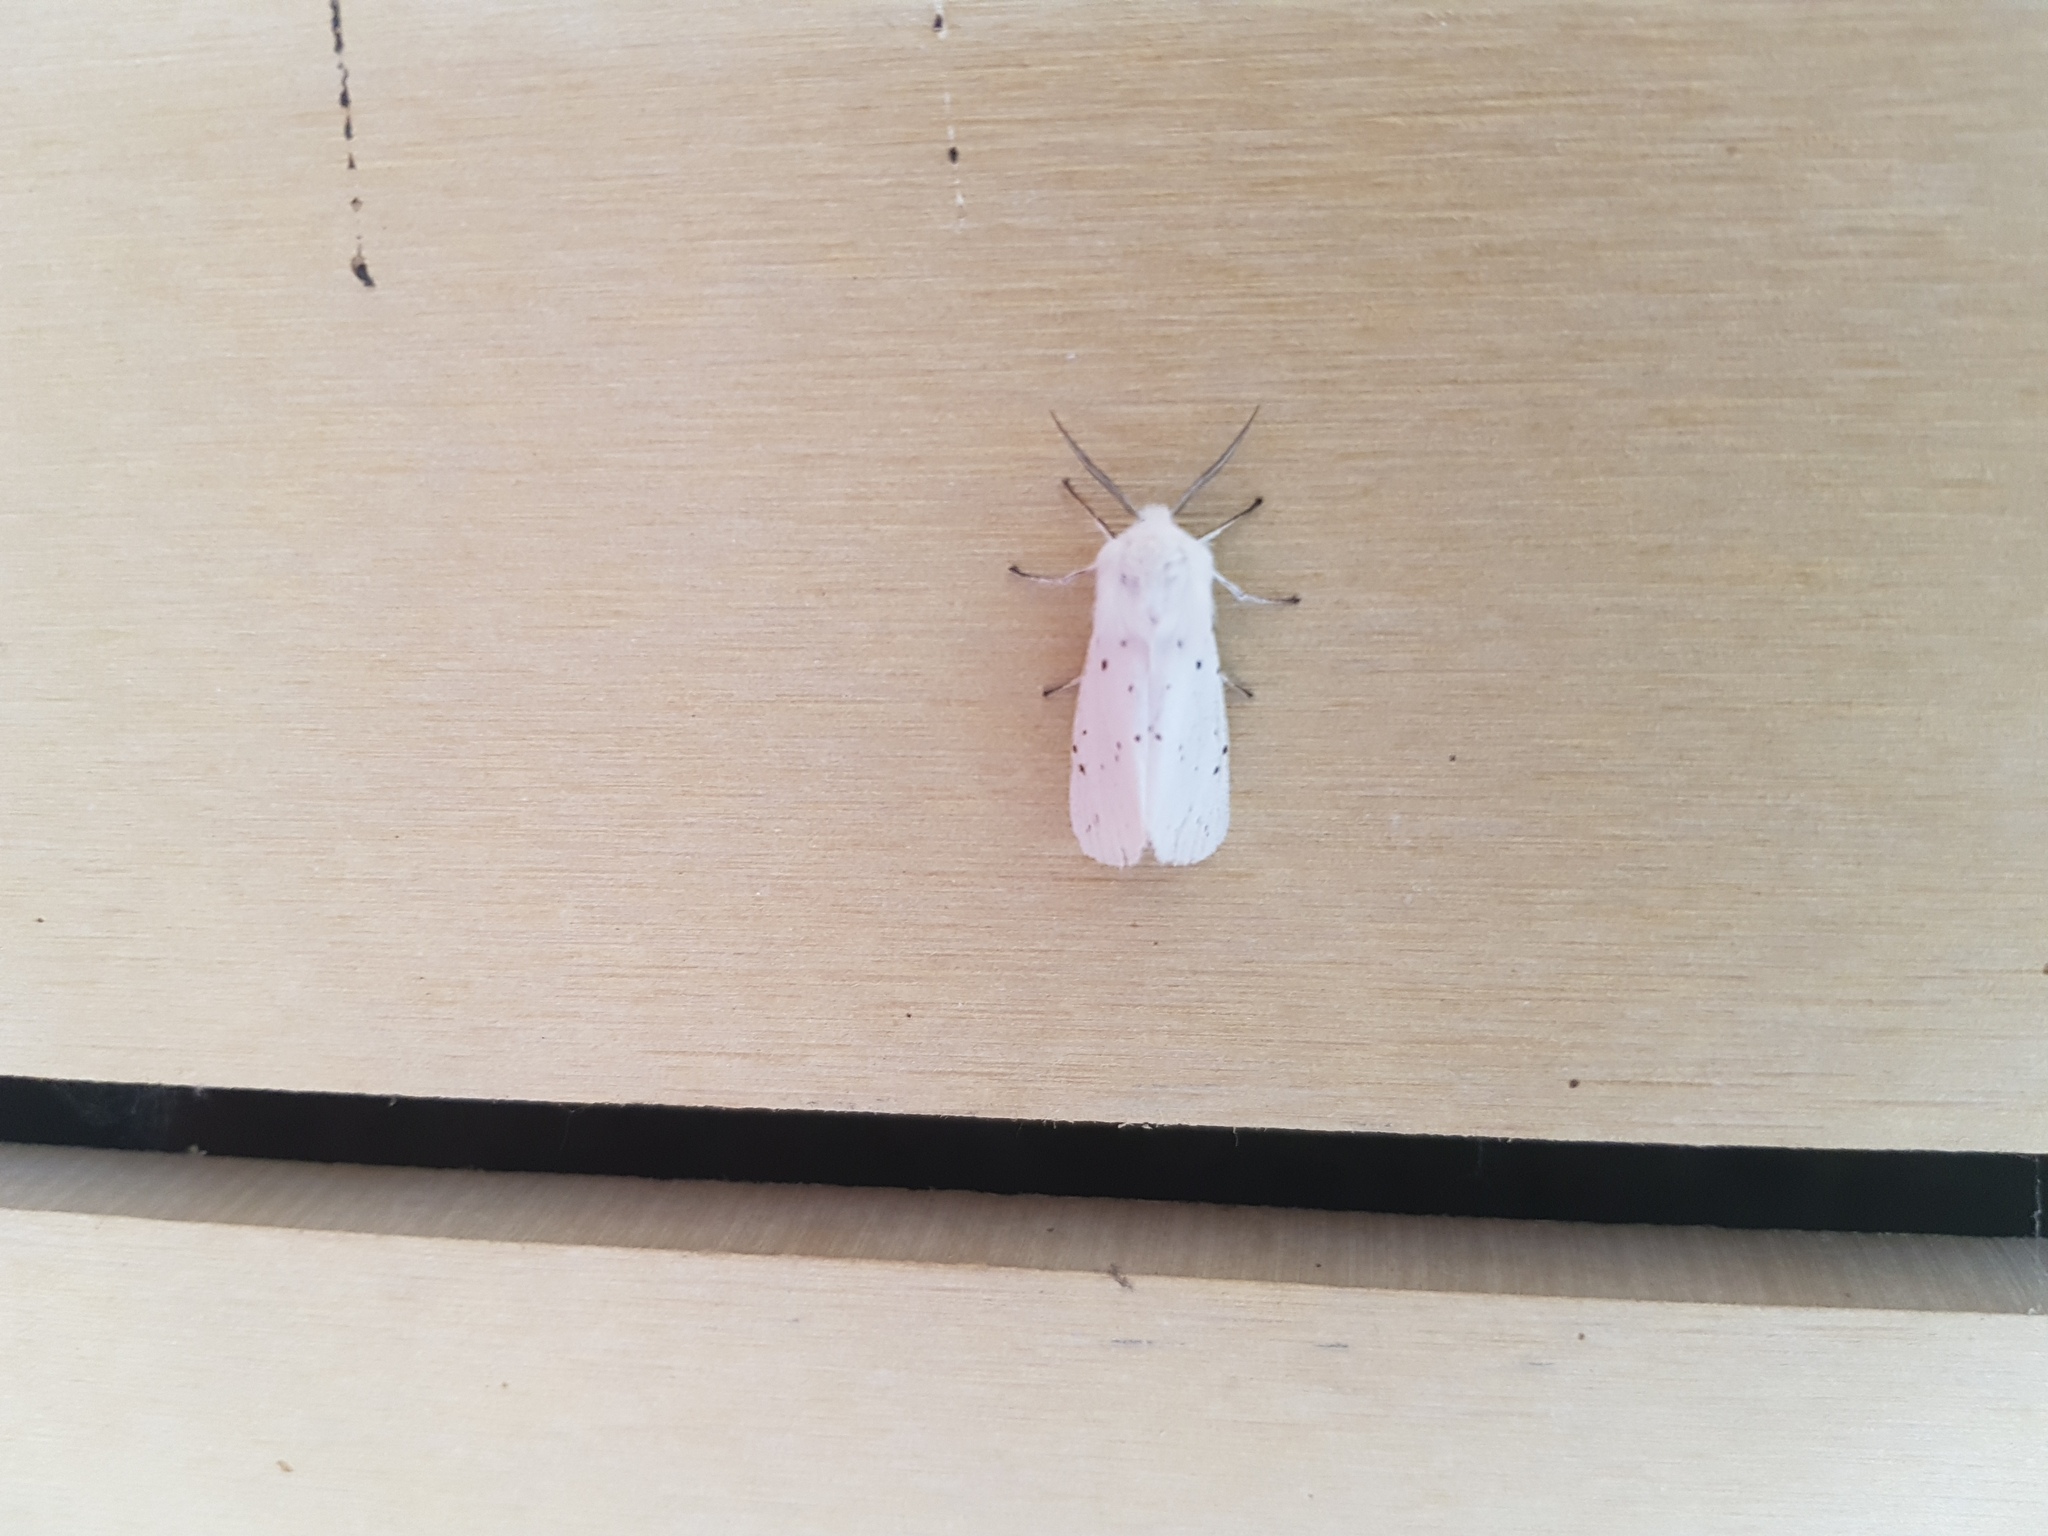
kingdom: Animalia
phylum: Arthropoda
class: Insecta
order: Lepidoptera
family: Erebidae
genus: Spilosoma
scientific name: Spilosoma lubricipeda
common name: White ermine
